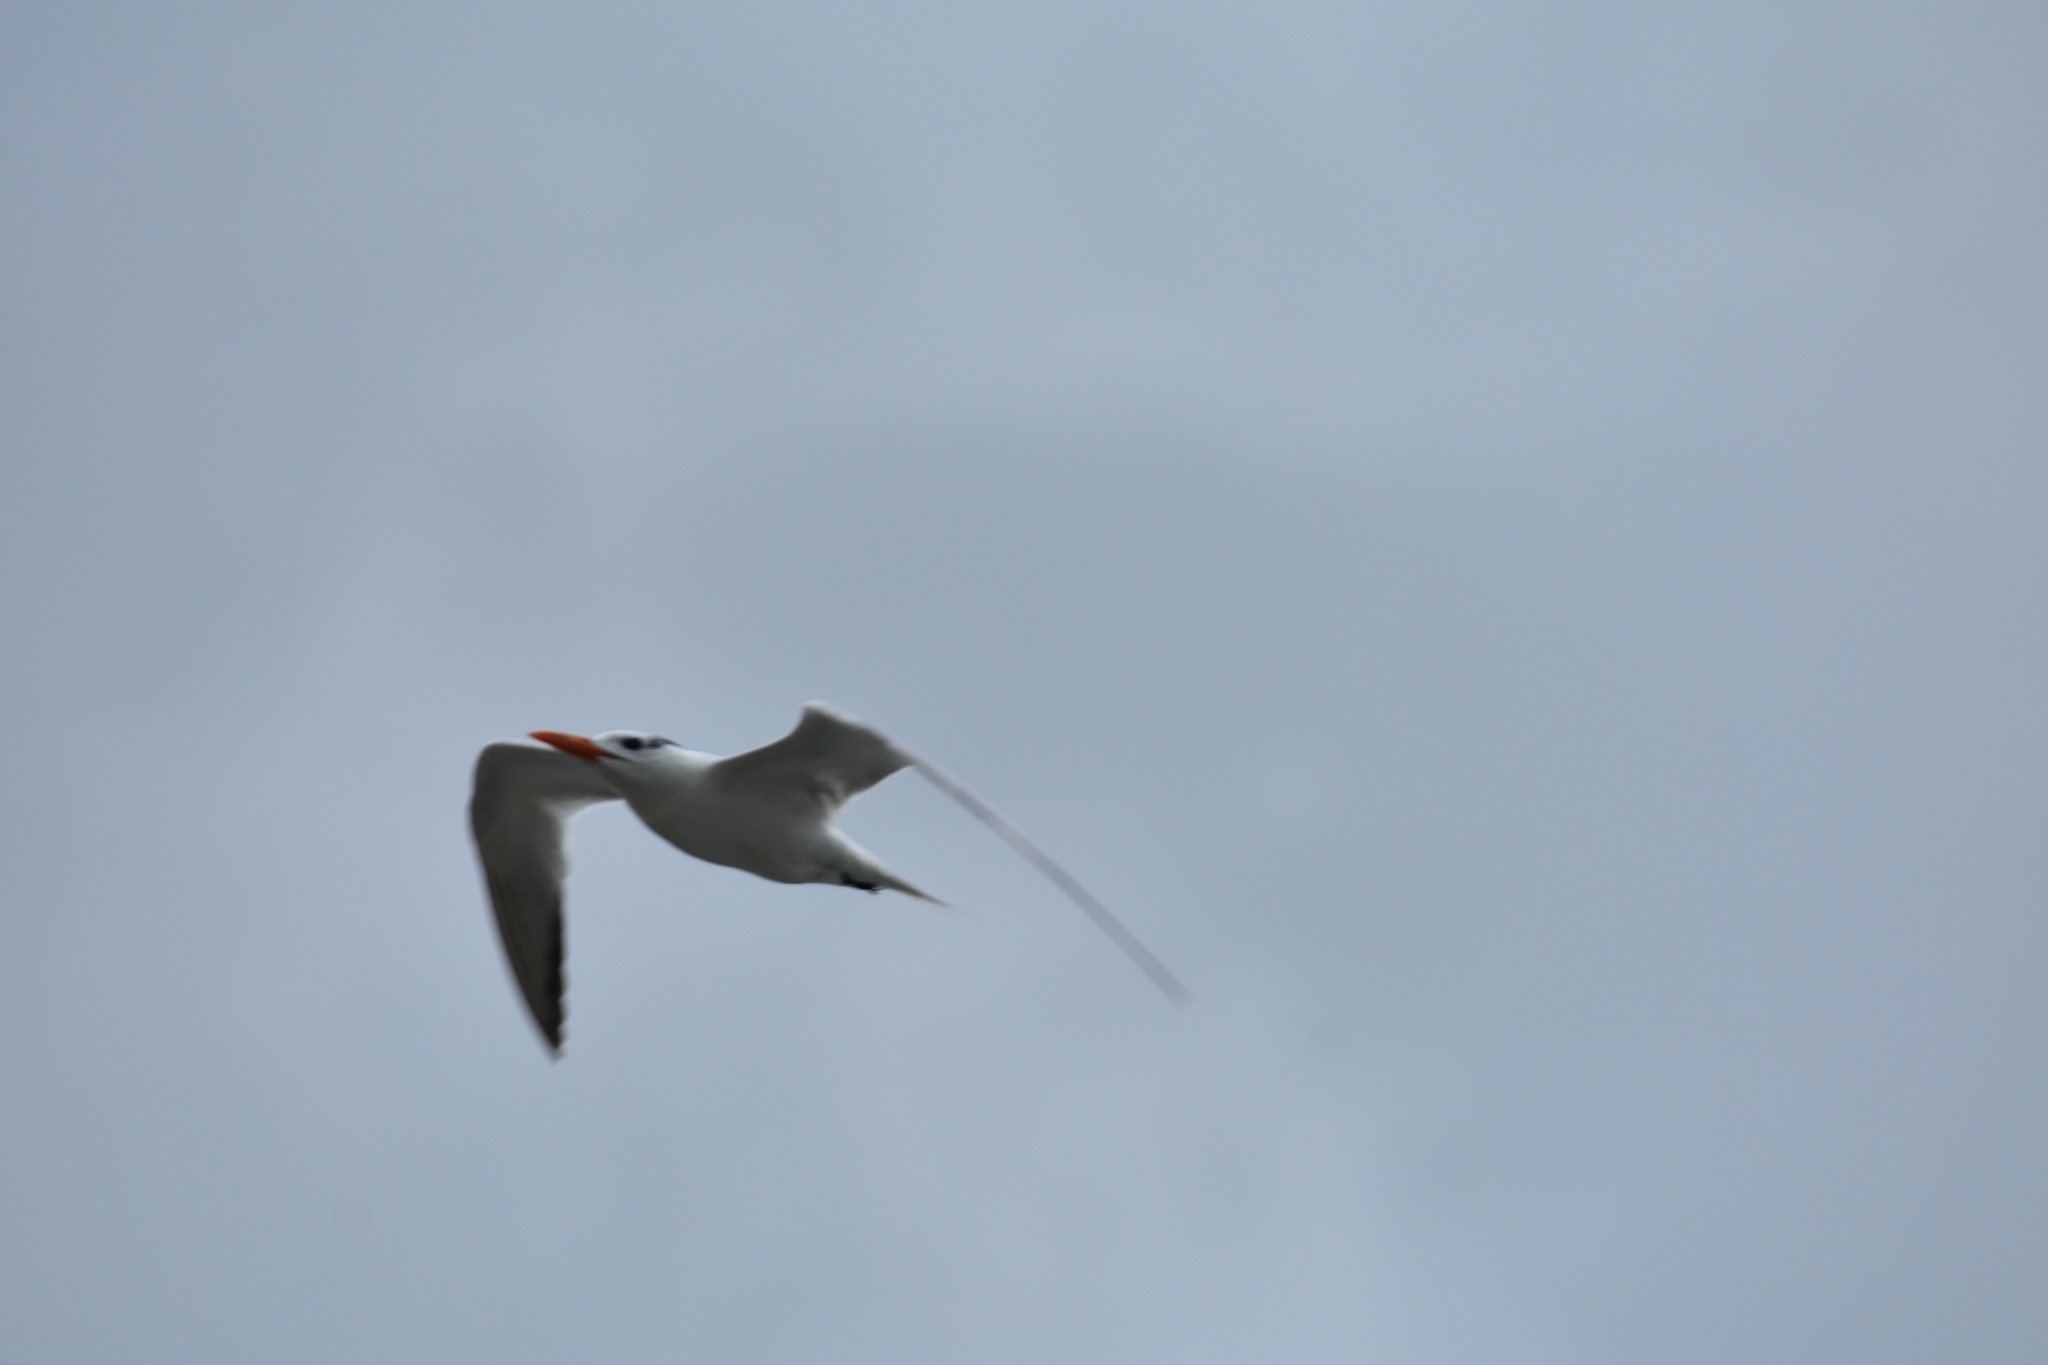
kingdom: Animalia
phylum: Chordata
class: Aves
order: Charadriiformes
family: Laridae
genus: Thalasseus
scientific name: Thalasseus maximus
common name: Royal tern
